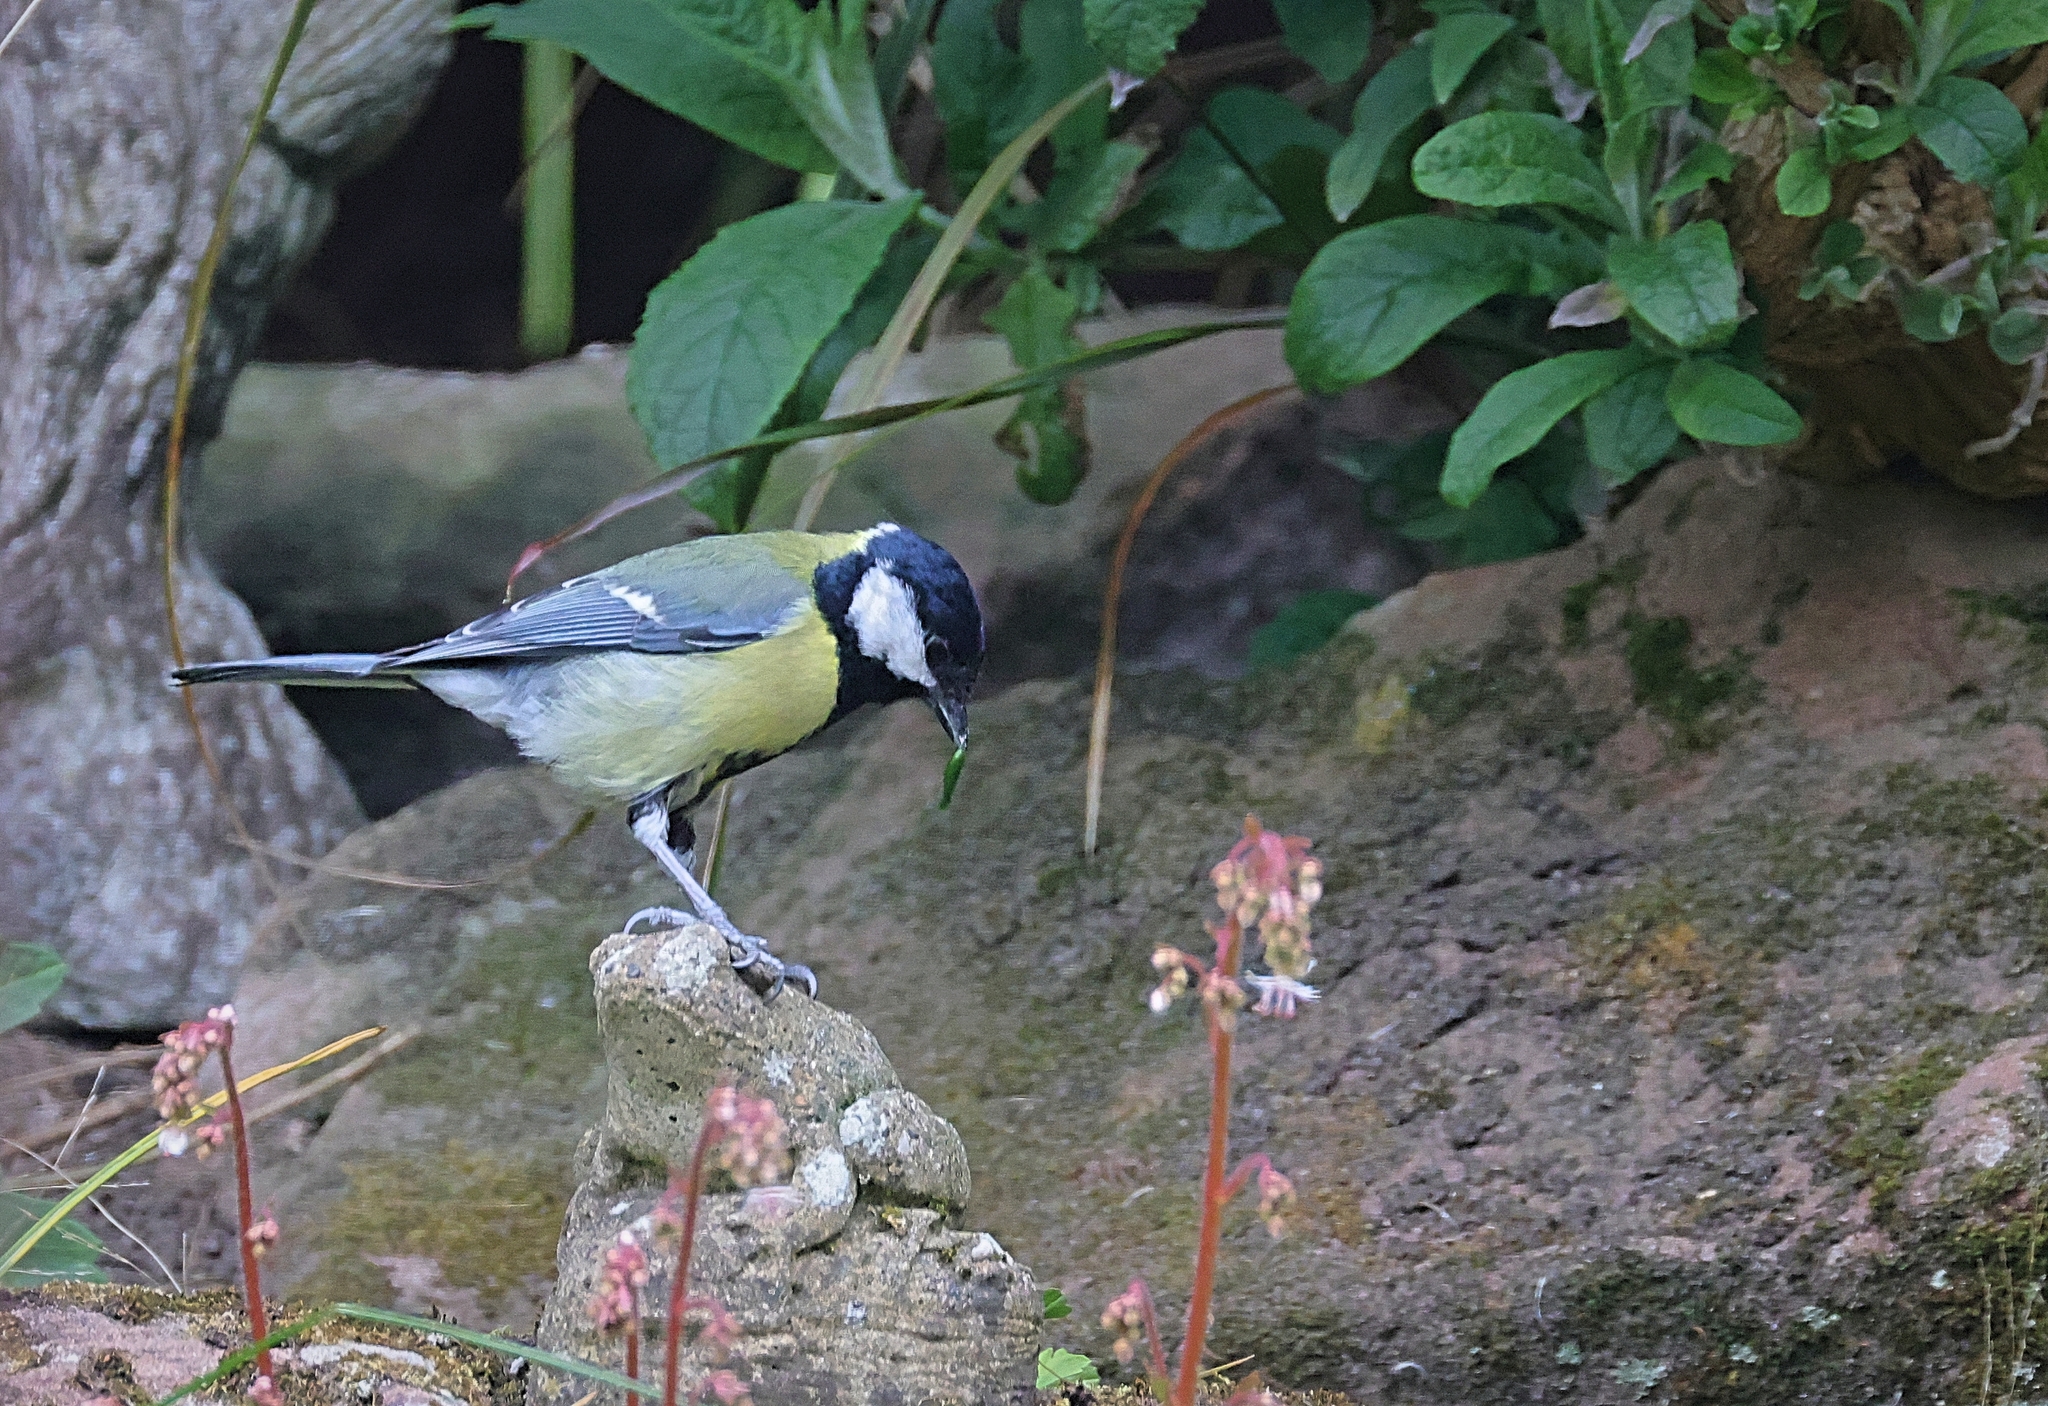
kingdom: Animalia
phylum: Chordata
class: Aves
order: Passeriformes
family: Paridae
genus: Parus
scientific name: Parus major
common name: Great tit
